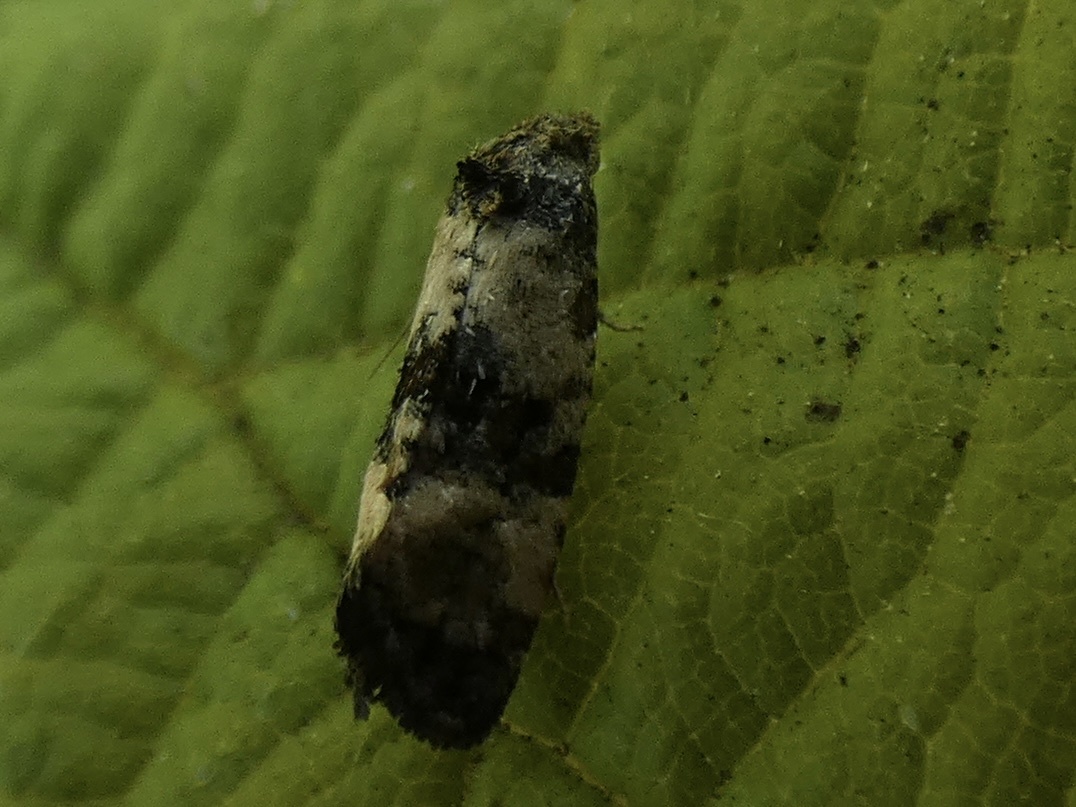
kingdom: Animalia
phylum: Arthropoda
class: Insecta
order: Lepidoptera
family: Tortricidae
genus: Cochylis
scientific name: Cochylis atricapitana
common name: Tortricid moth
